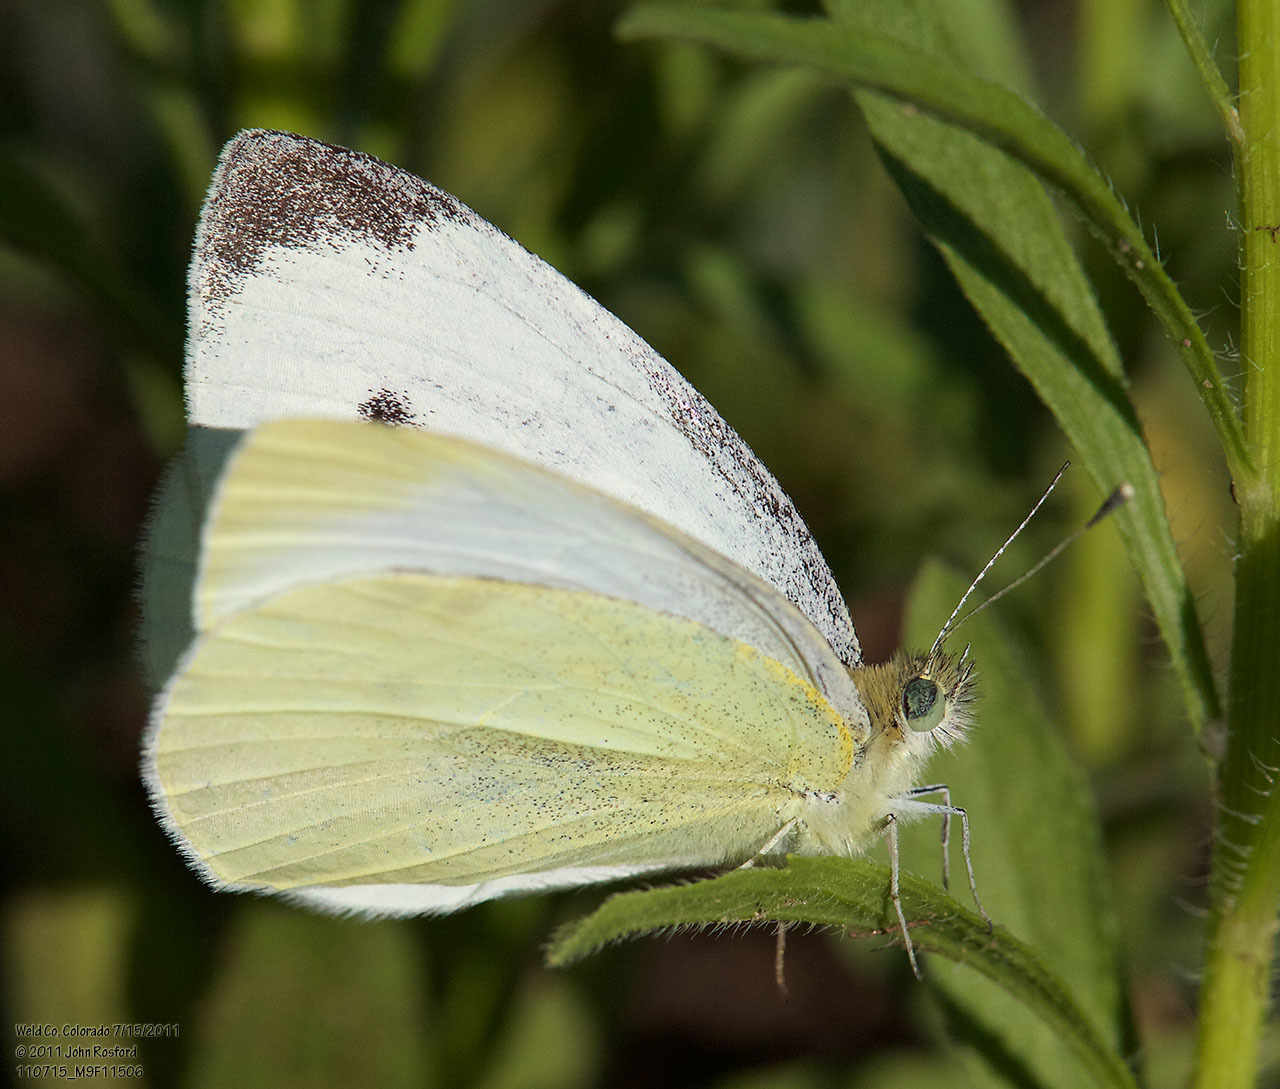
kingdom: Animalia
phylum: Arthropoda
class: Insecta
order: Lepidoptera
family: Pieridae
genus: Pieris
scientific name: Pieris rapae
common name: Small white
